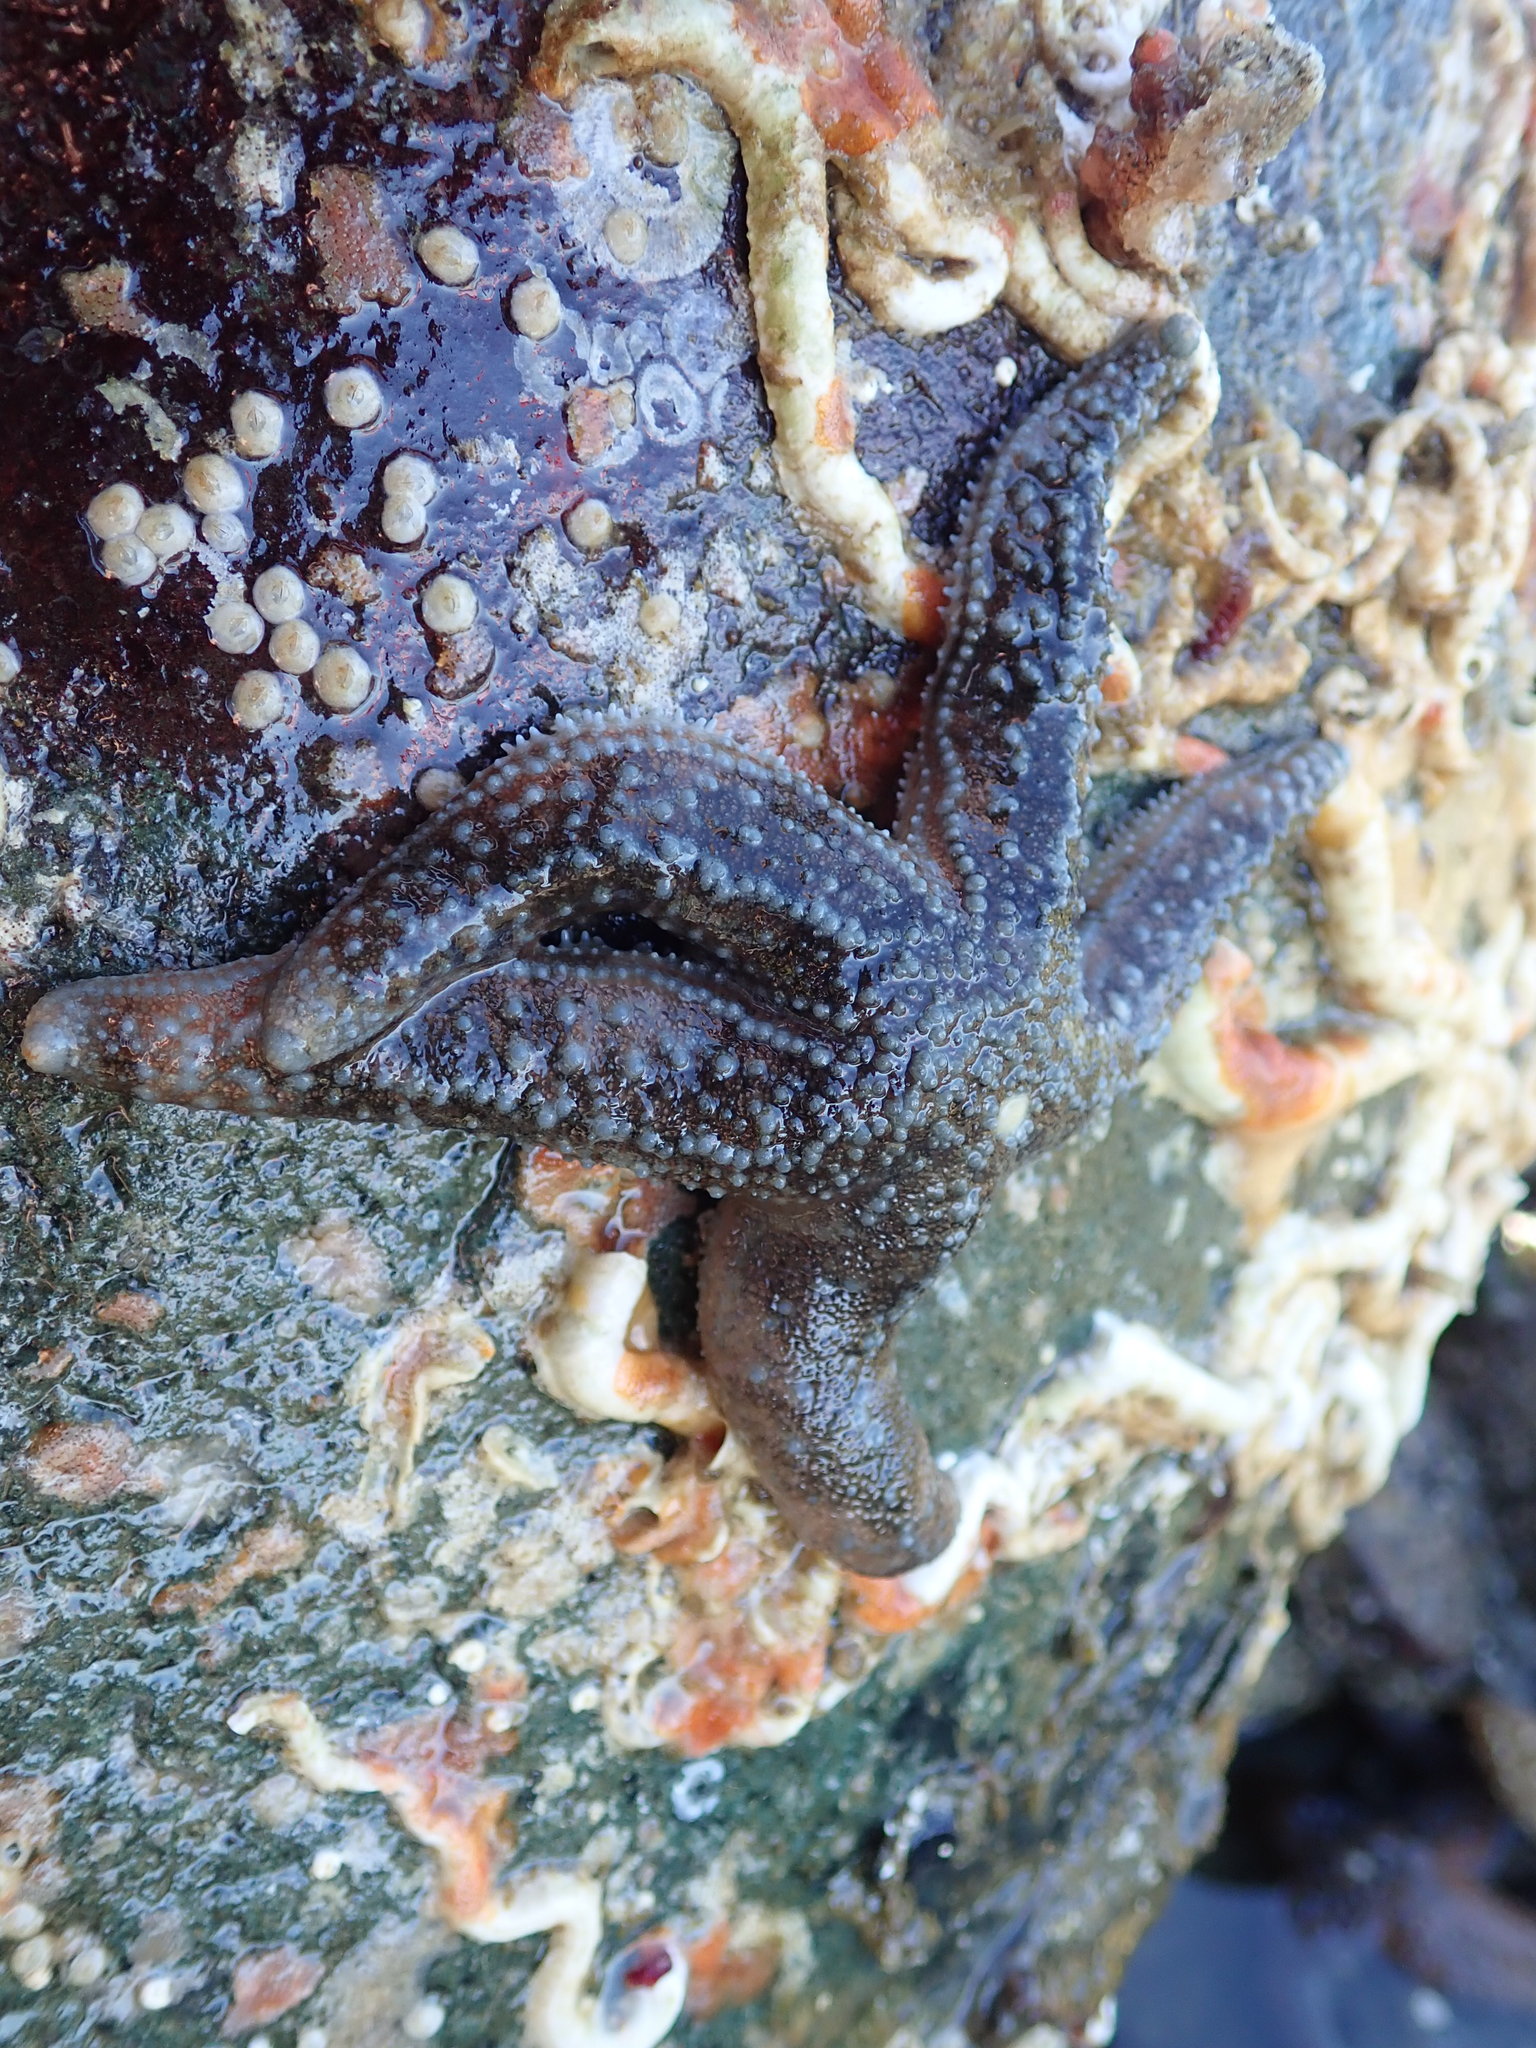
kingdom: Animalia
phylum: Echinodermata
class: Asteroidea
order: Forcipulatida
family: Asteriidae
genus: Evasterias
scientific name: Evasterias troschelii
